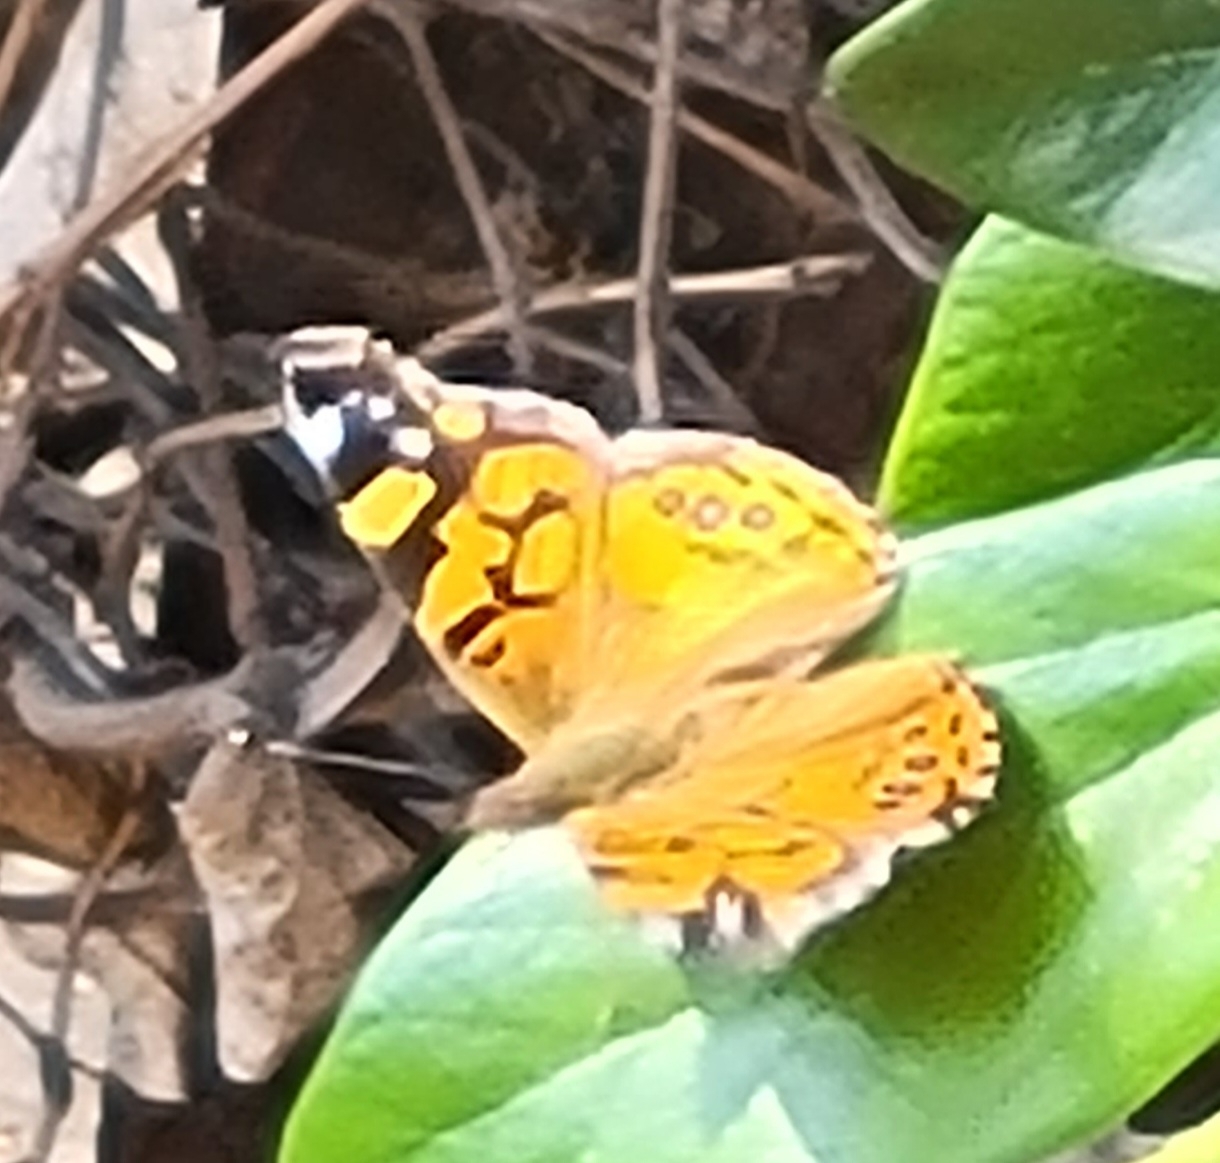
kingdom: Animalia
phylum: Arthropoda
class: Insecta
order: Lepidoptera
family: Nymphalidae
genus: Vanessa
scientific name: Vanessa annabella
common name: West coast lady
